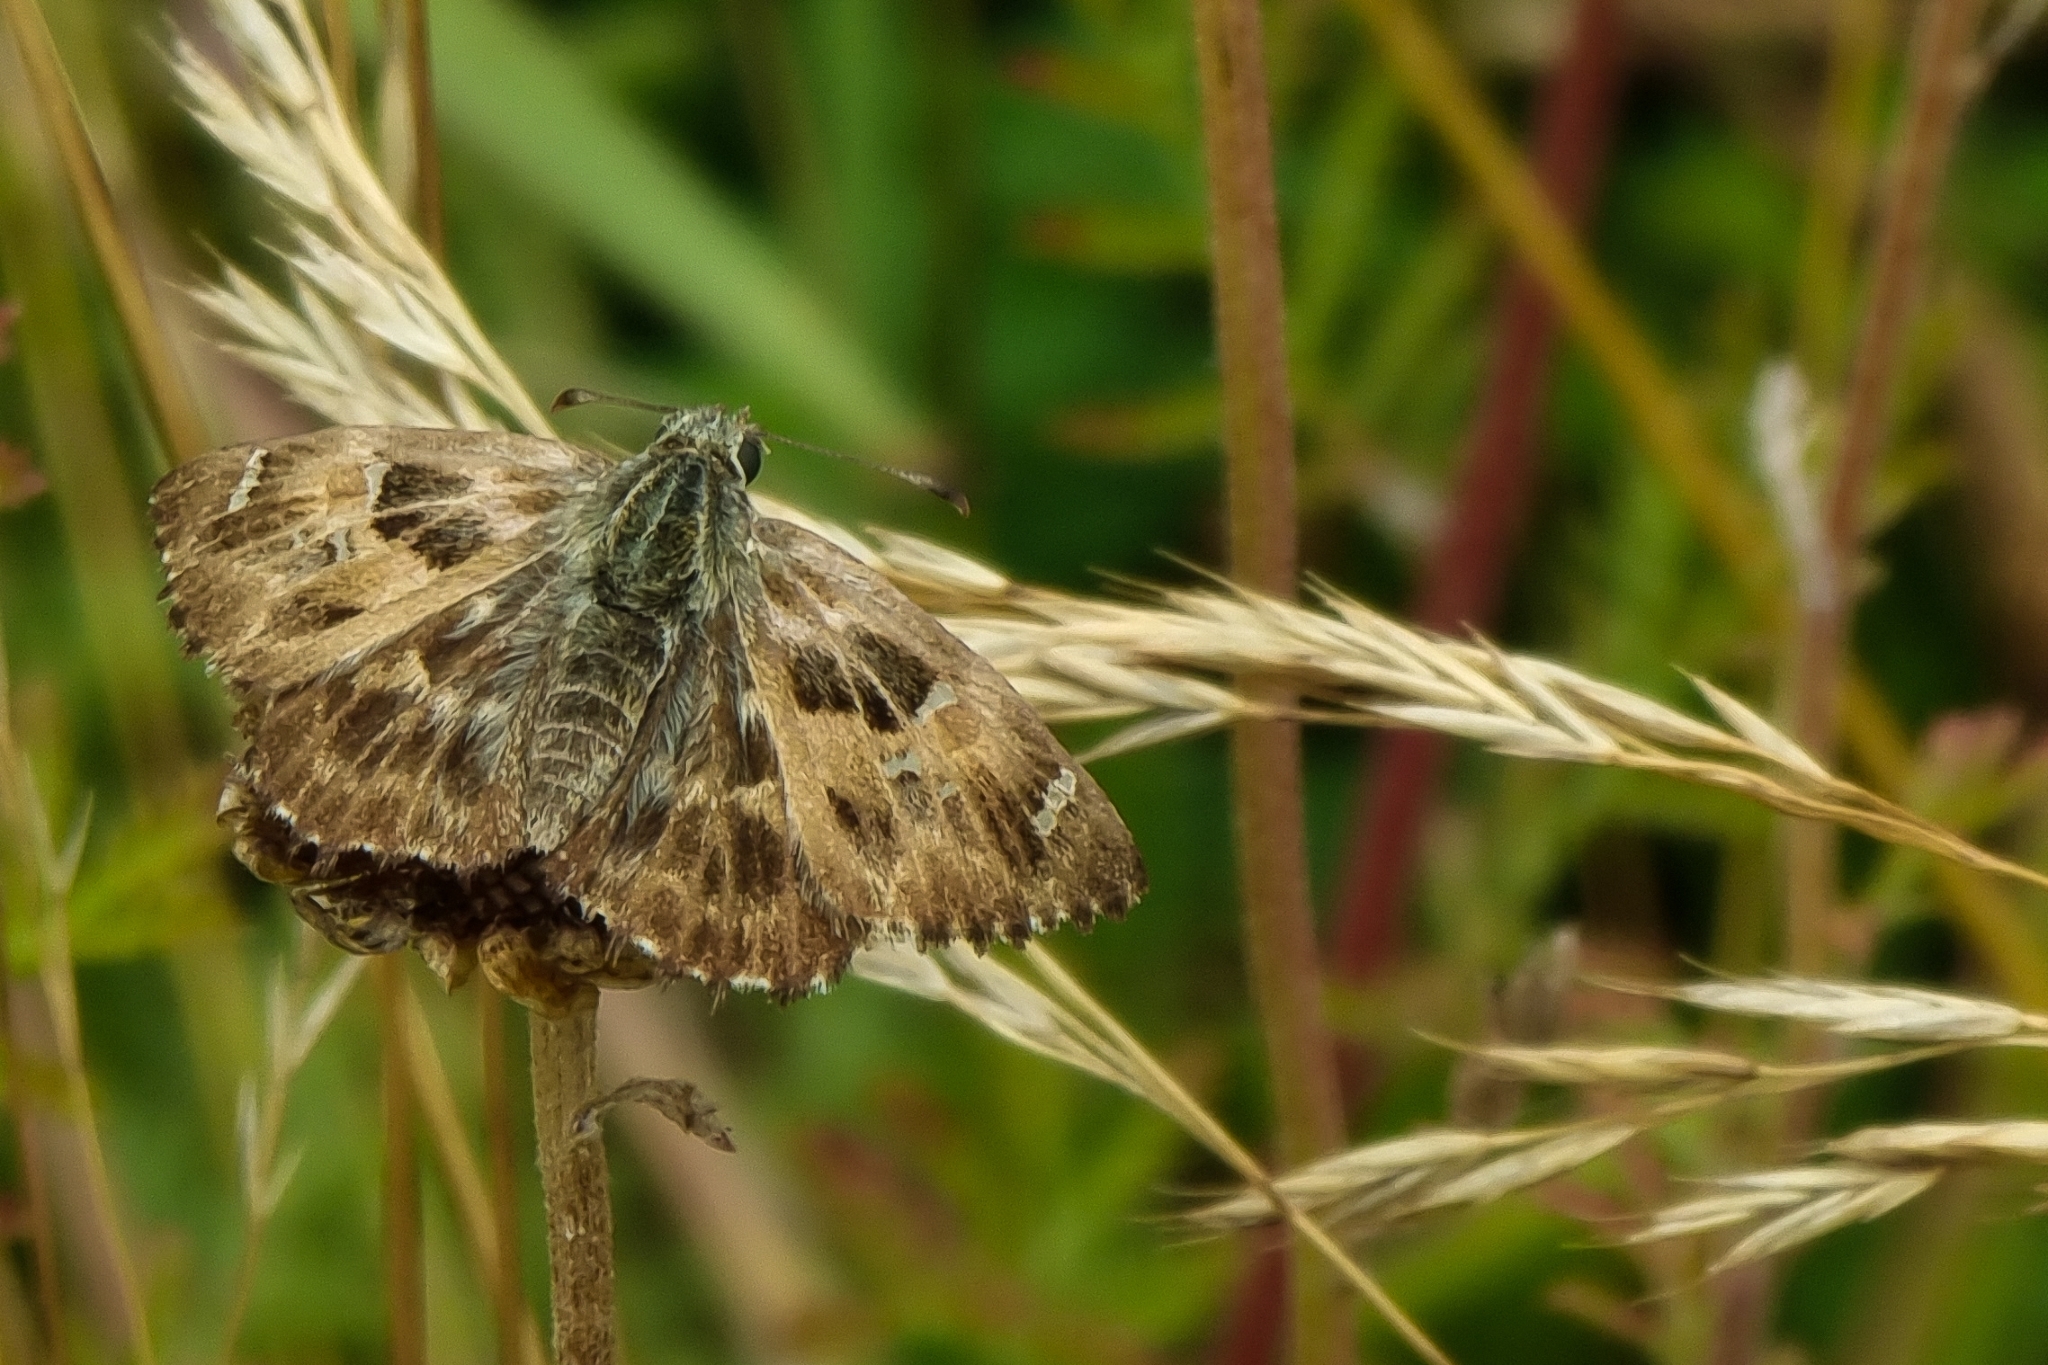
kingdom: Animalia
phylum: Arthropoda
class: Insecta
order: Lepidoptera
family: Hesperiidae
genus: Carcharodus
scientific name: Carcharodus alceae
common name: Mallow skipper
